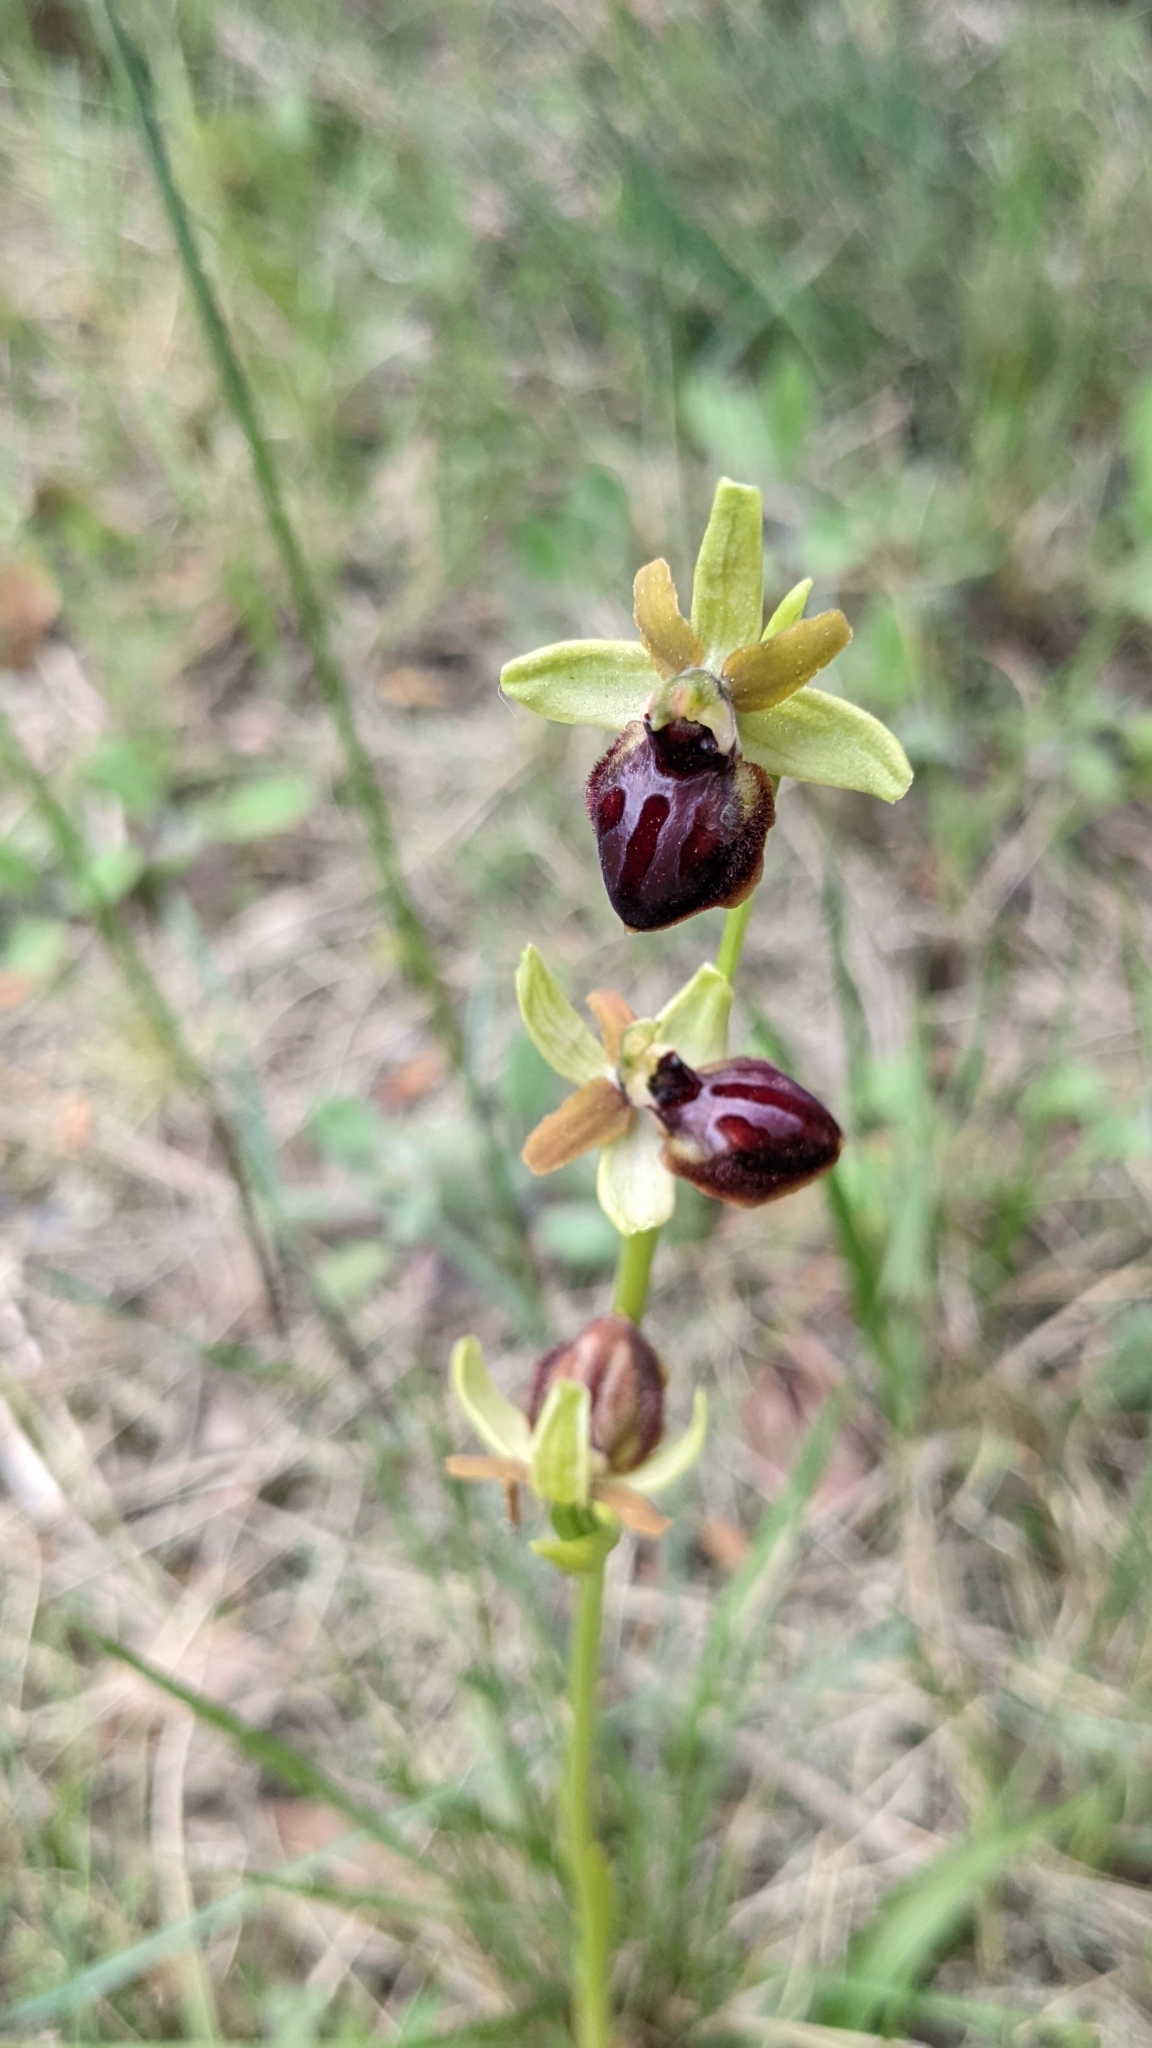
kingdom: Plantae
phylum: Tracheophyta
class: Liliopsida
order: Asparagales
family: Orchidaceae
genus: Ophrys
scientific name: Ophrys sphegodes
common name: Early spider-orchid
